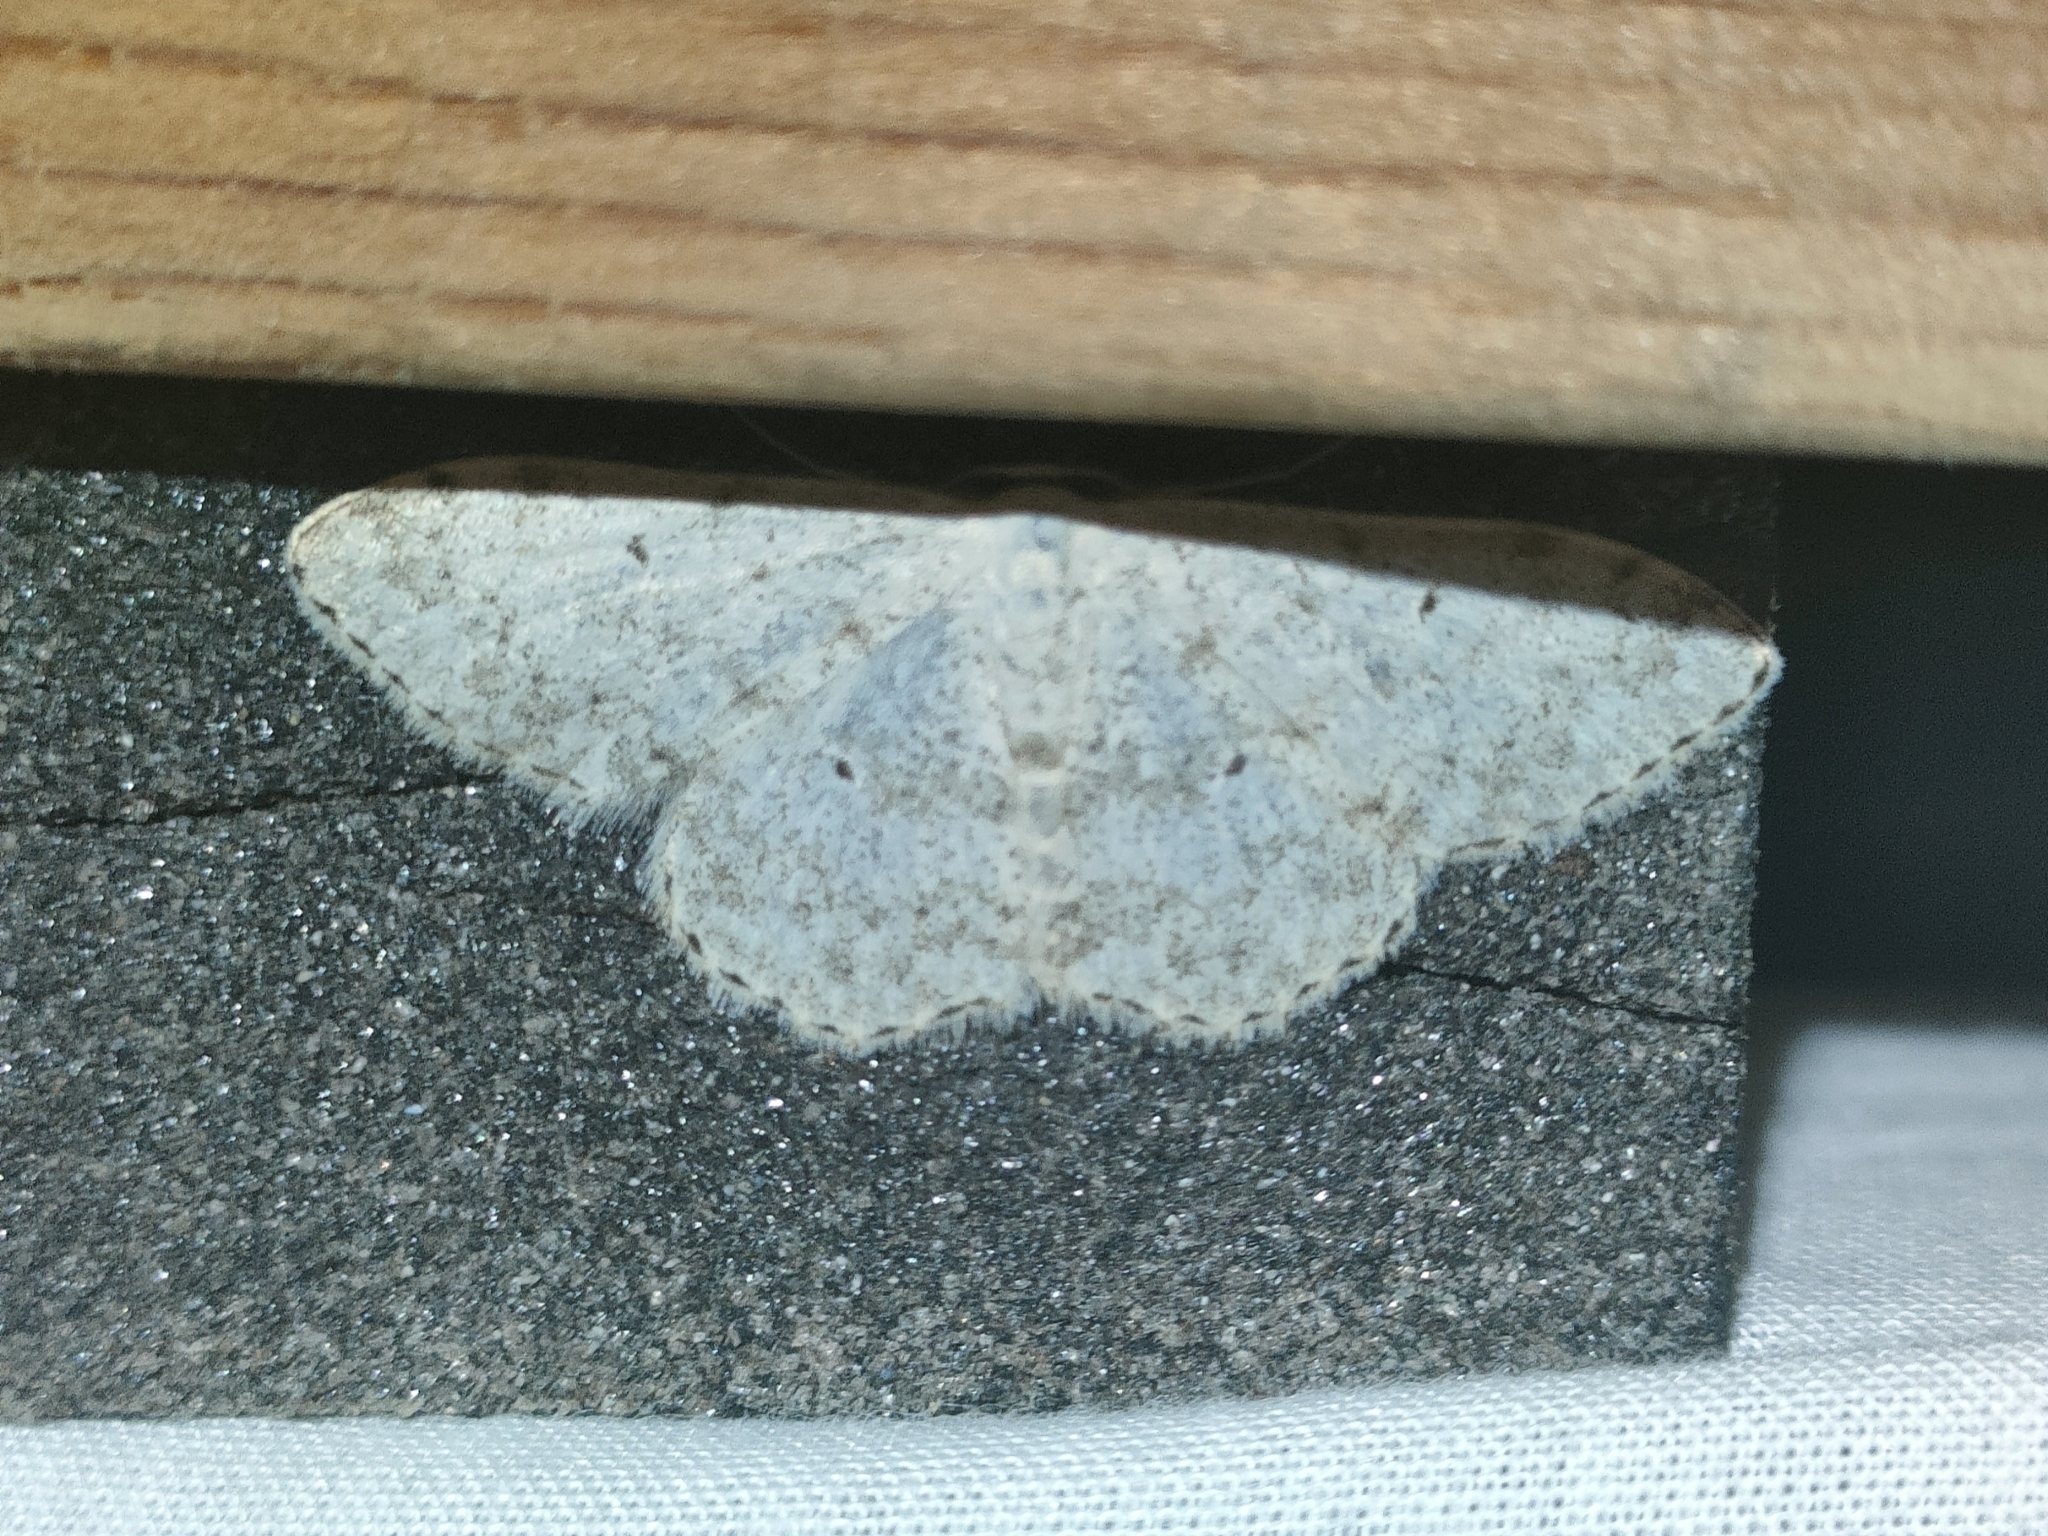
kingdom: Animalia
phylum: Arthropoda
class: Insecta
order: Lepidoptera
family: Geometridae
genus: Scopula
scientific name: Scopula marginepunctata
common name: Mullein wave
